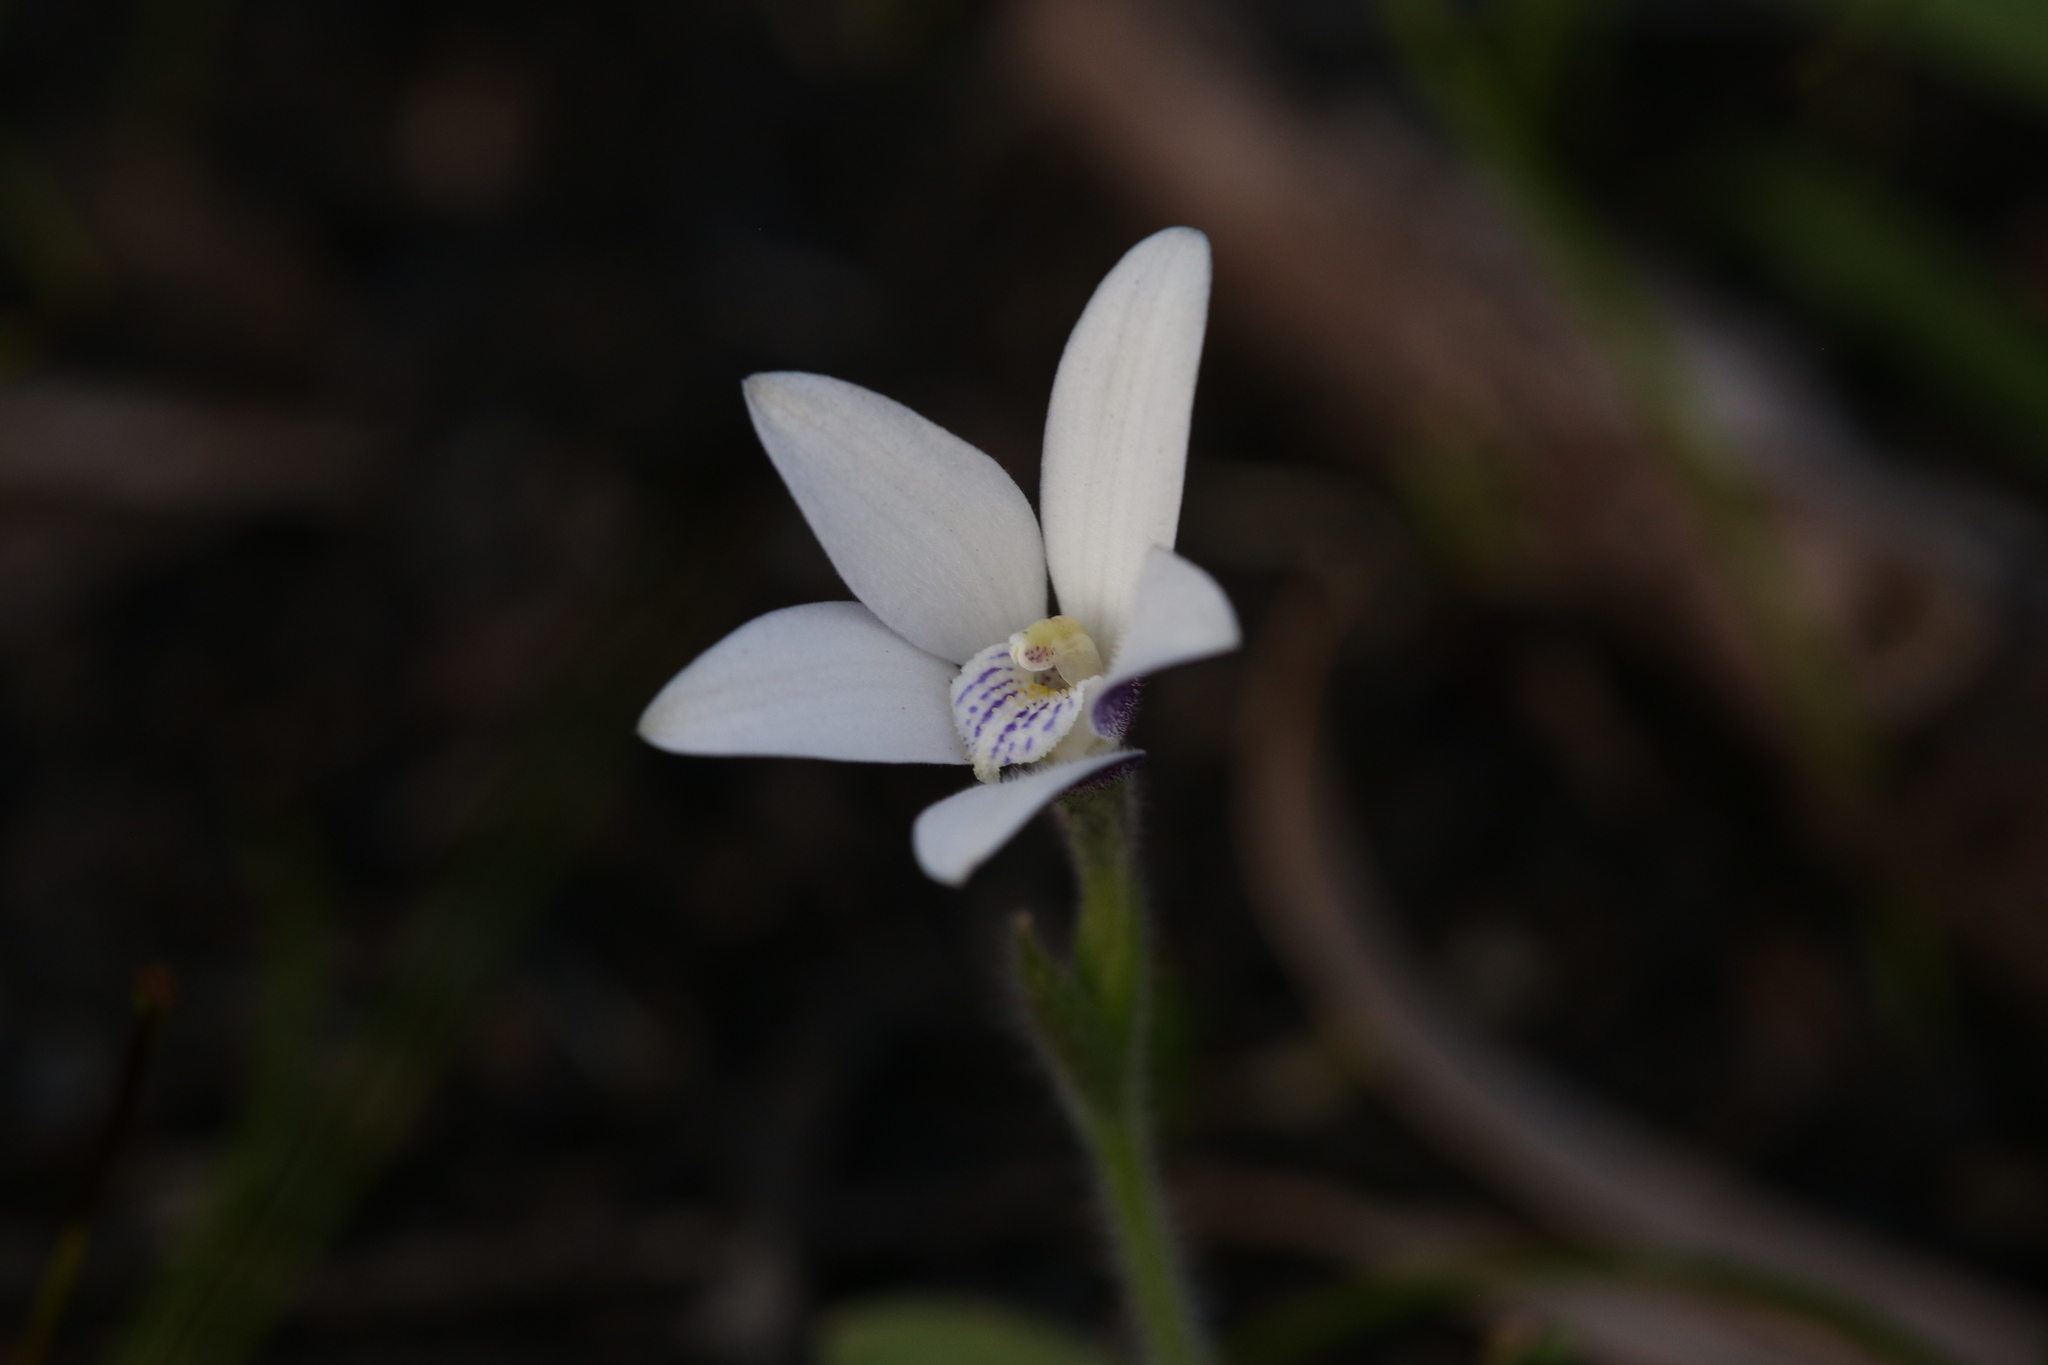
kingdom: Plantae
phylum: Tracheophyta
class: Liliopsida
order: Asparagales
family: Orchidaceae
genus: Caladenia
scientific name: Caladenia ixioides
